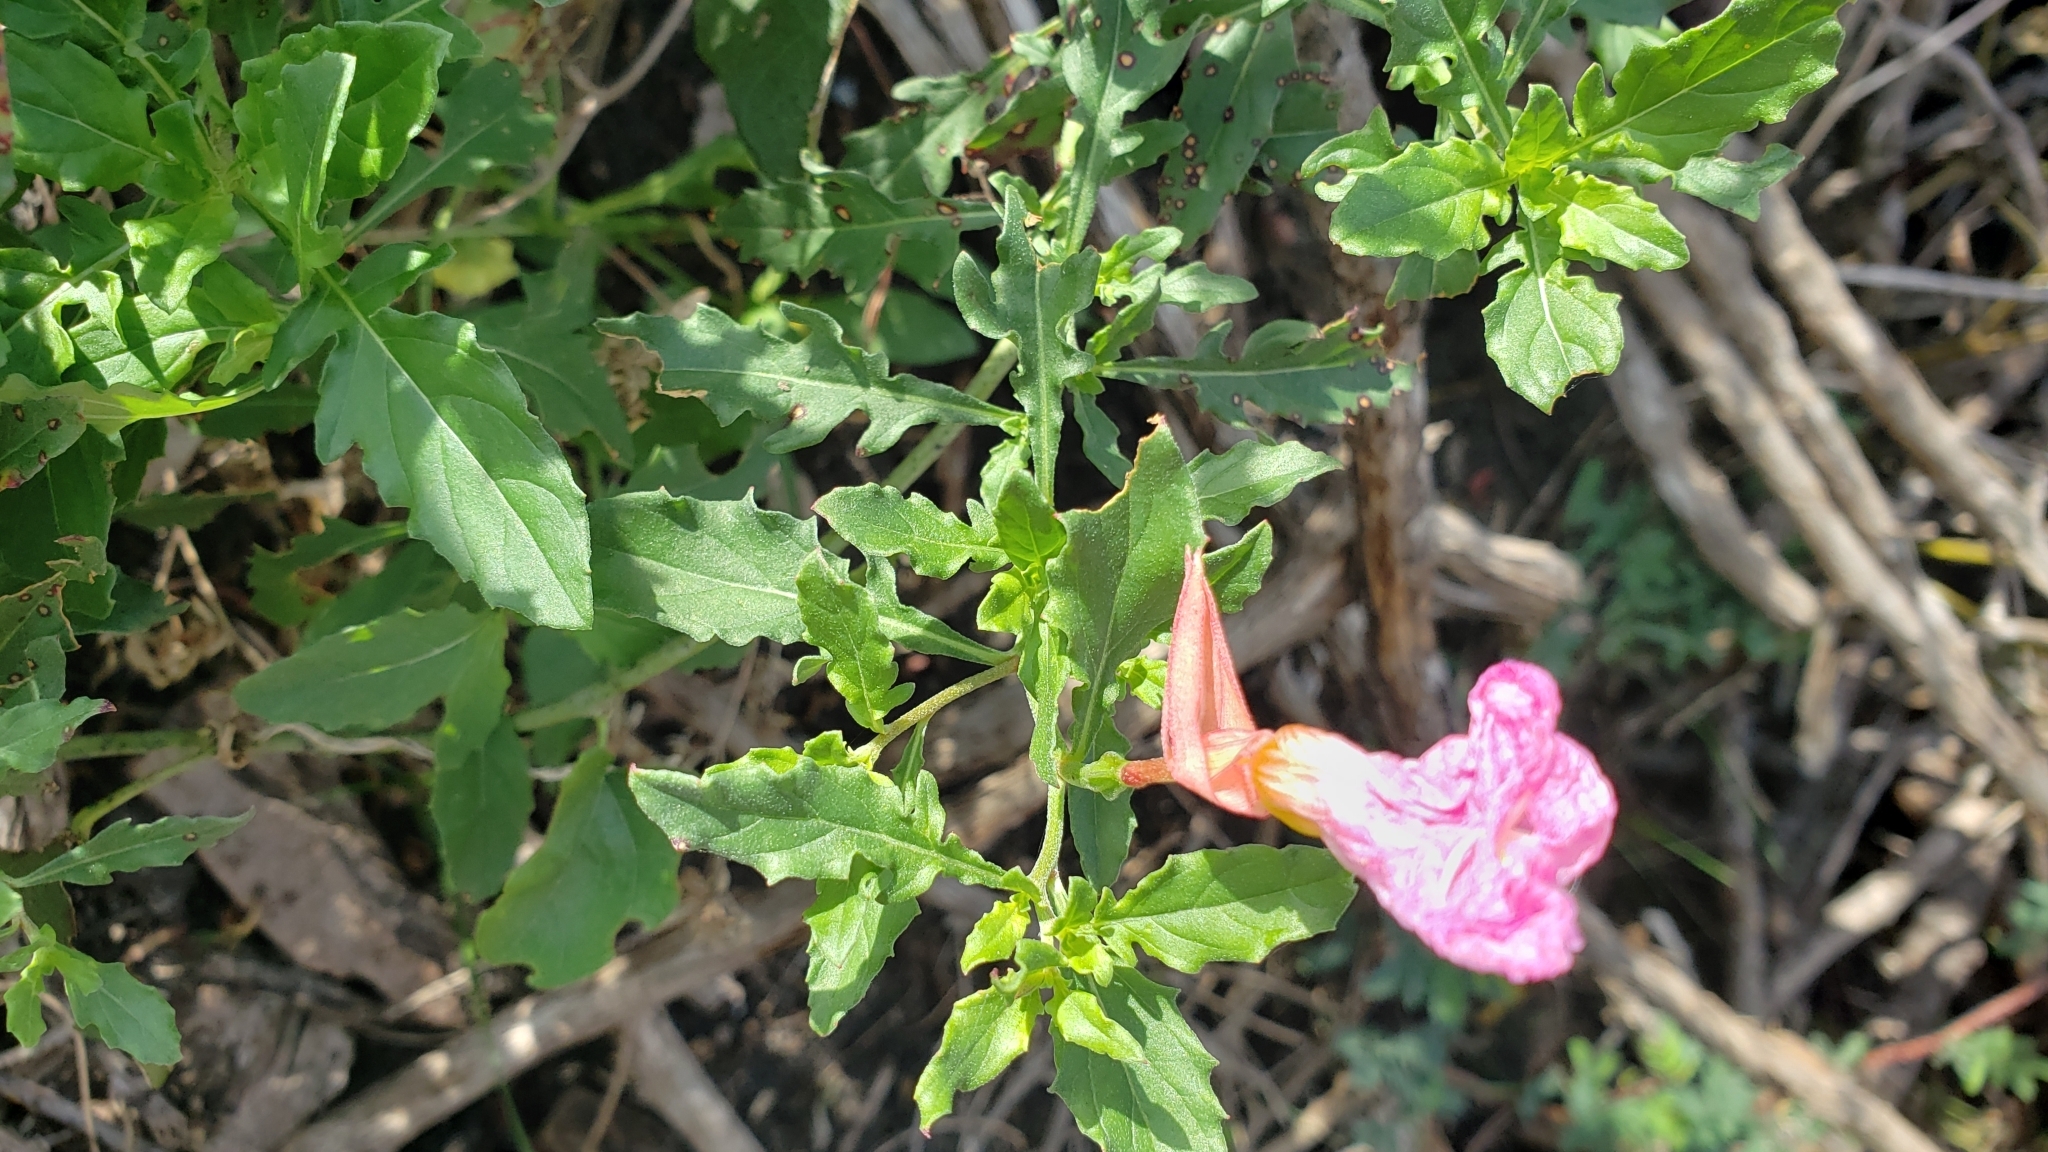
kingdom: Plantae
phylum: Tracheophyta
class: Magnoliopsida
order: Myrtales
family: Onagraceae
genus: Oenothera
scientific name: Oenothera speciosa
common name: White evening-primrose
